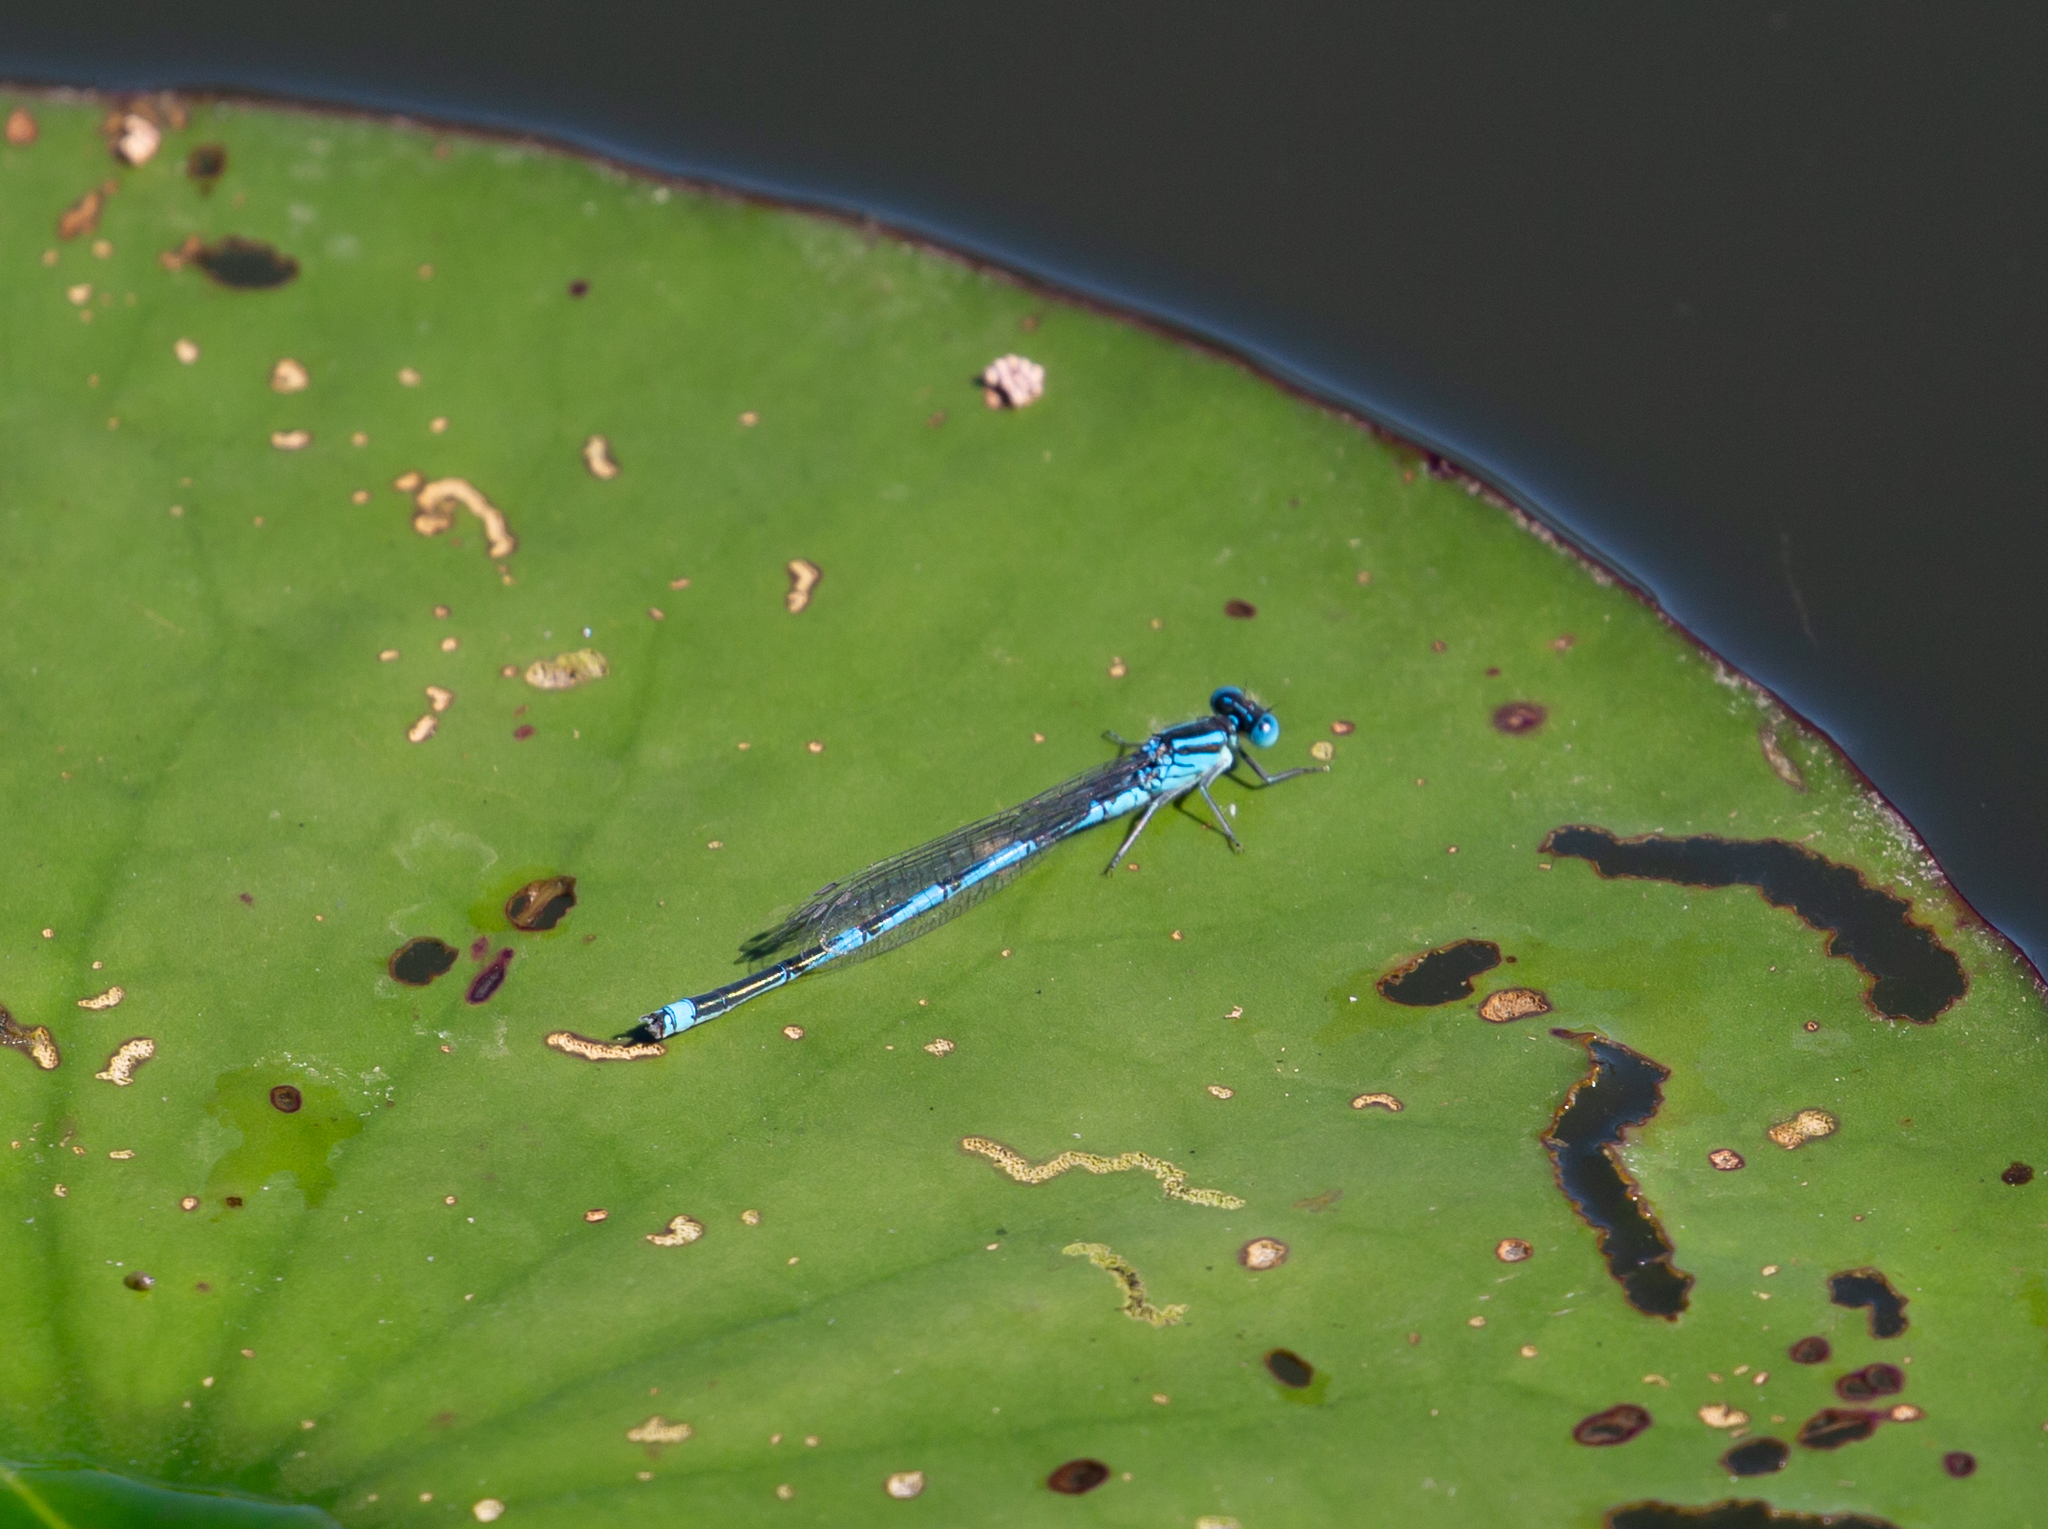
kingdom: Animalia
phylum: Arthropoda
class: Insecta
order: Odonata
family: Coenagrionidae
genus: Erythromma
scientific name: Erythromma lindenii
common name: Blue-eye
